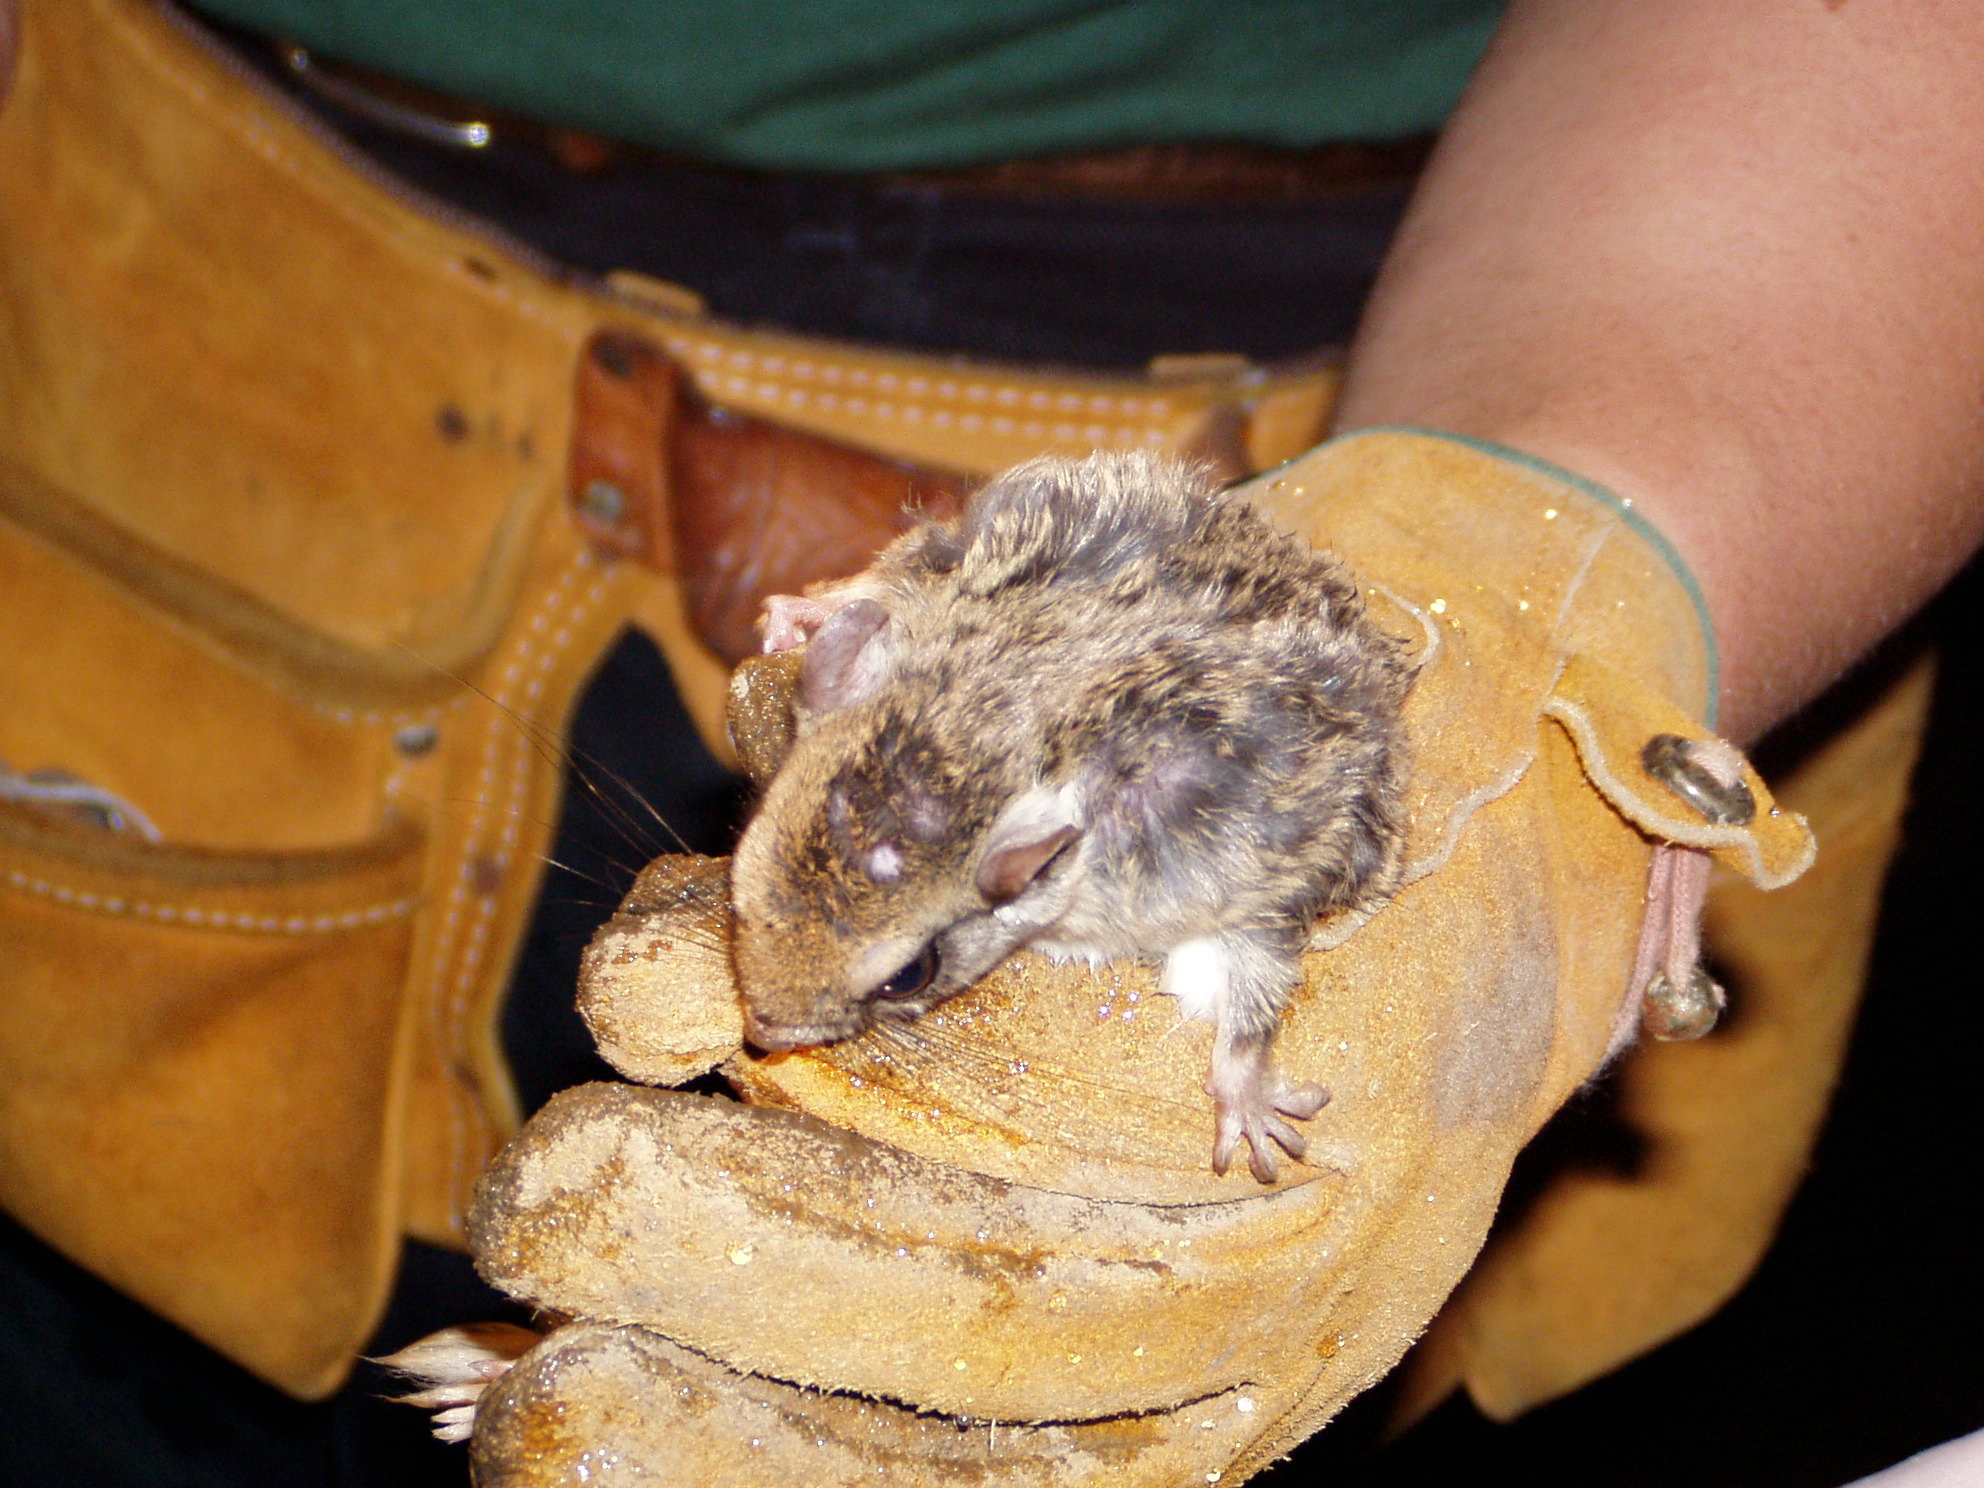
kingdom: Animalia
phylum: Chordata
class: Mammalia
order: Rodentia
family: Sciuridae
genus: Glaucomys
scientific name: Glaucomys volans
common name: Southern flying squirrel
